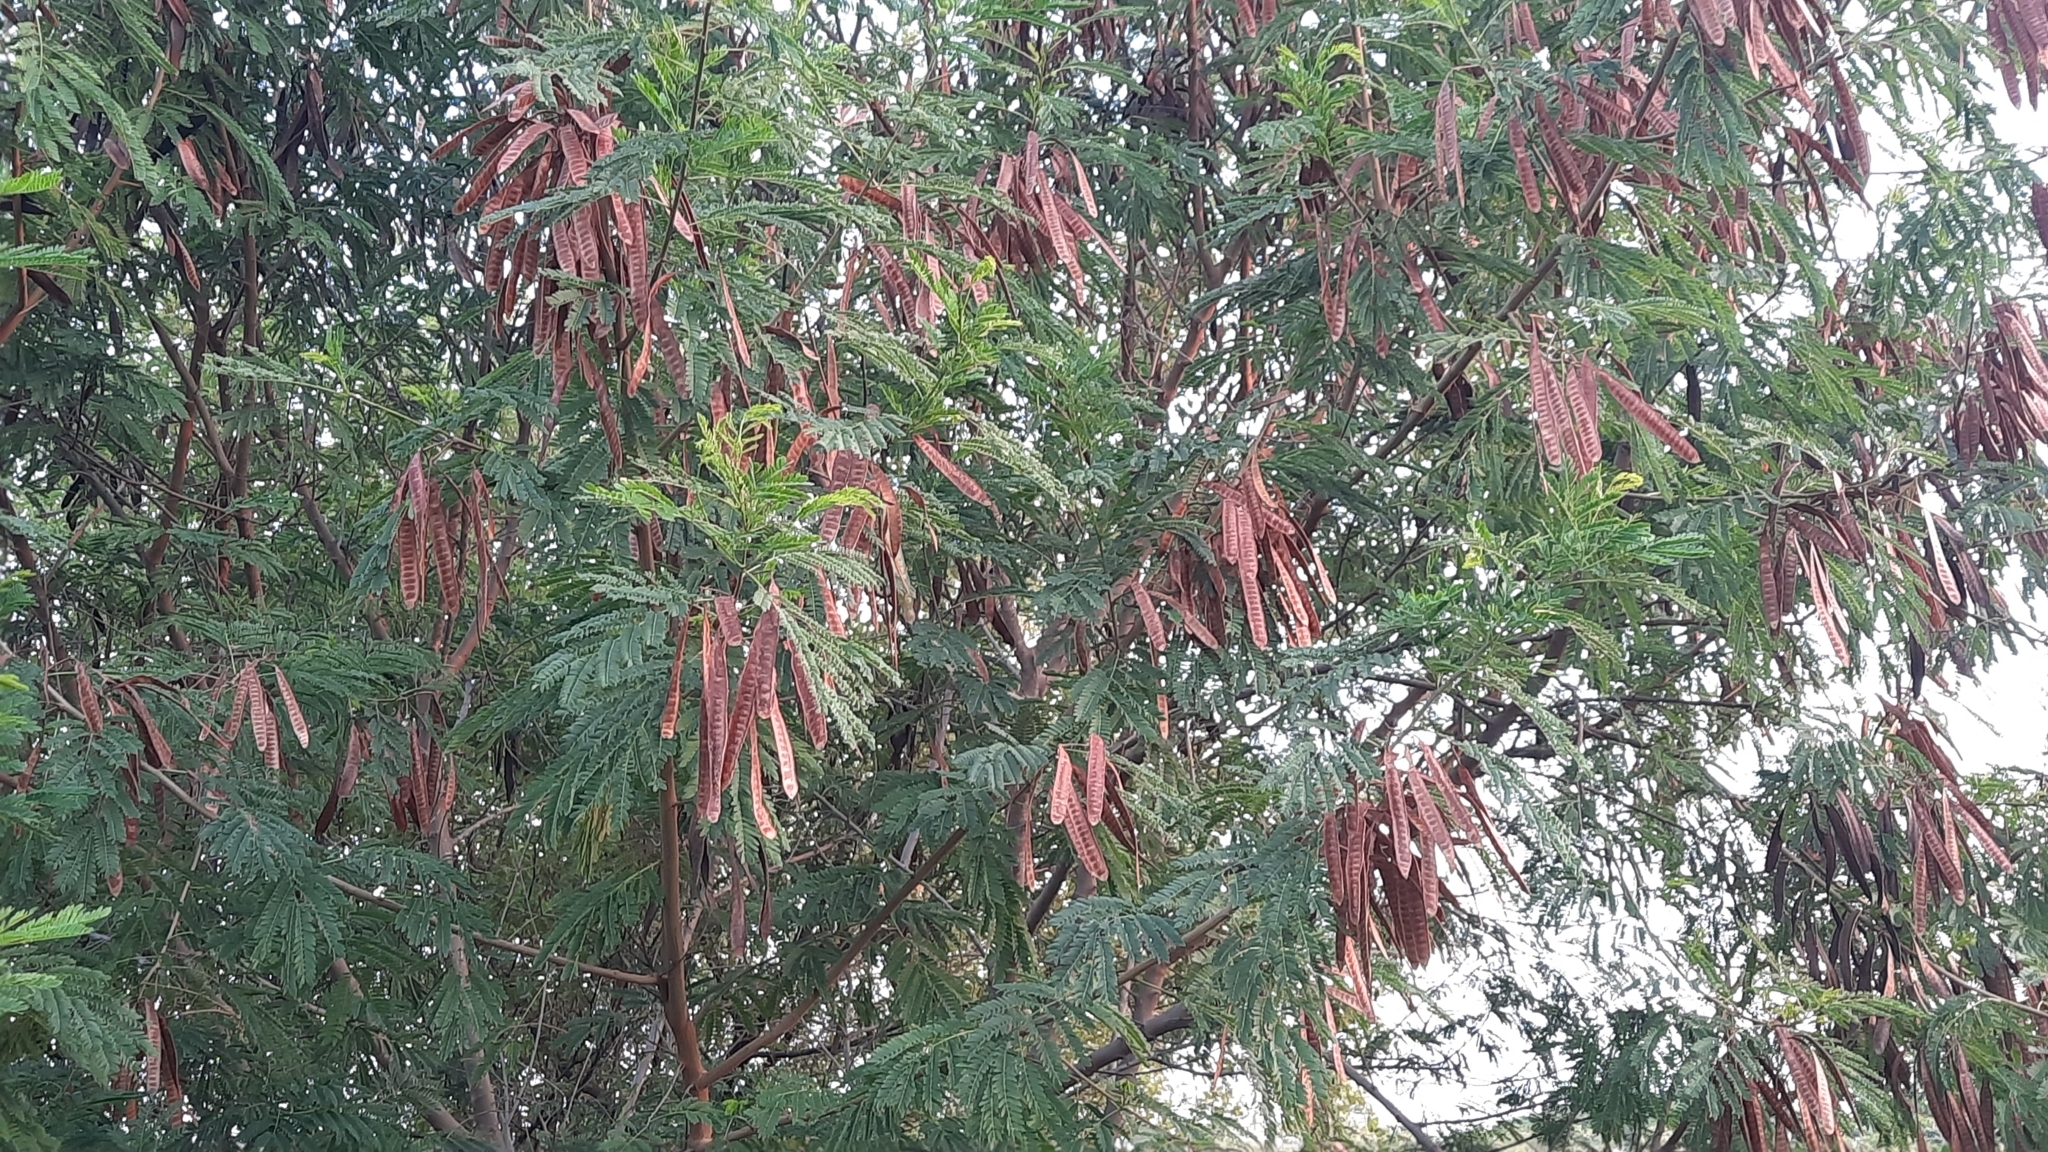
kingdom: Plantae
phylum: Tracheophyta
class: Magnoliopsida
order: Fabales
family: Fabaceae
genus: Leucaena
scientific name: Leucaena leucocephala
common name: White leadtree
